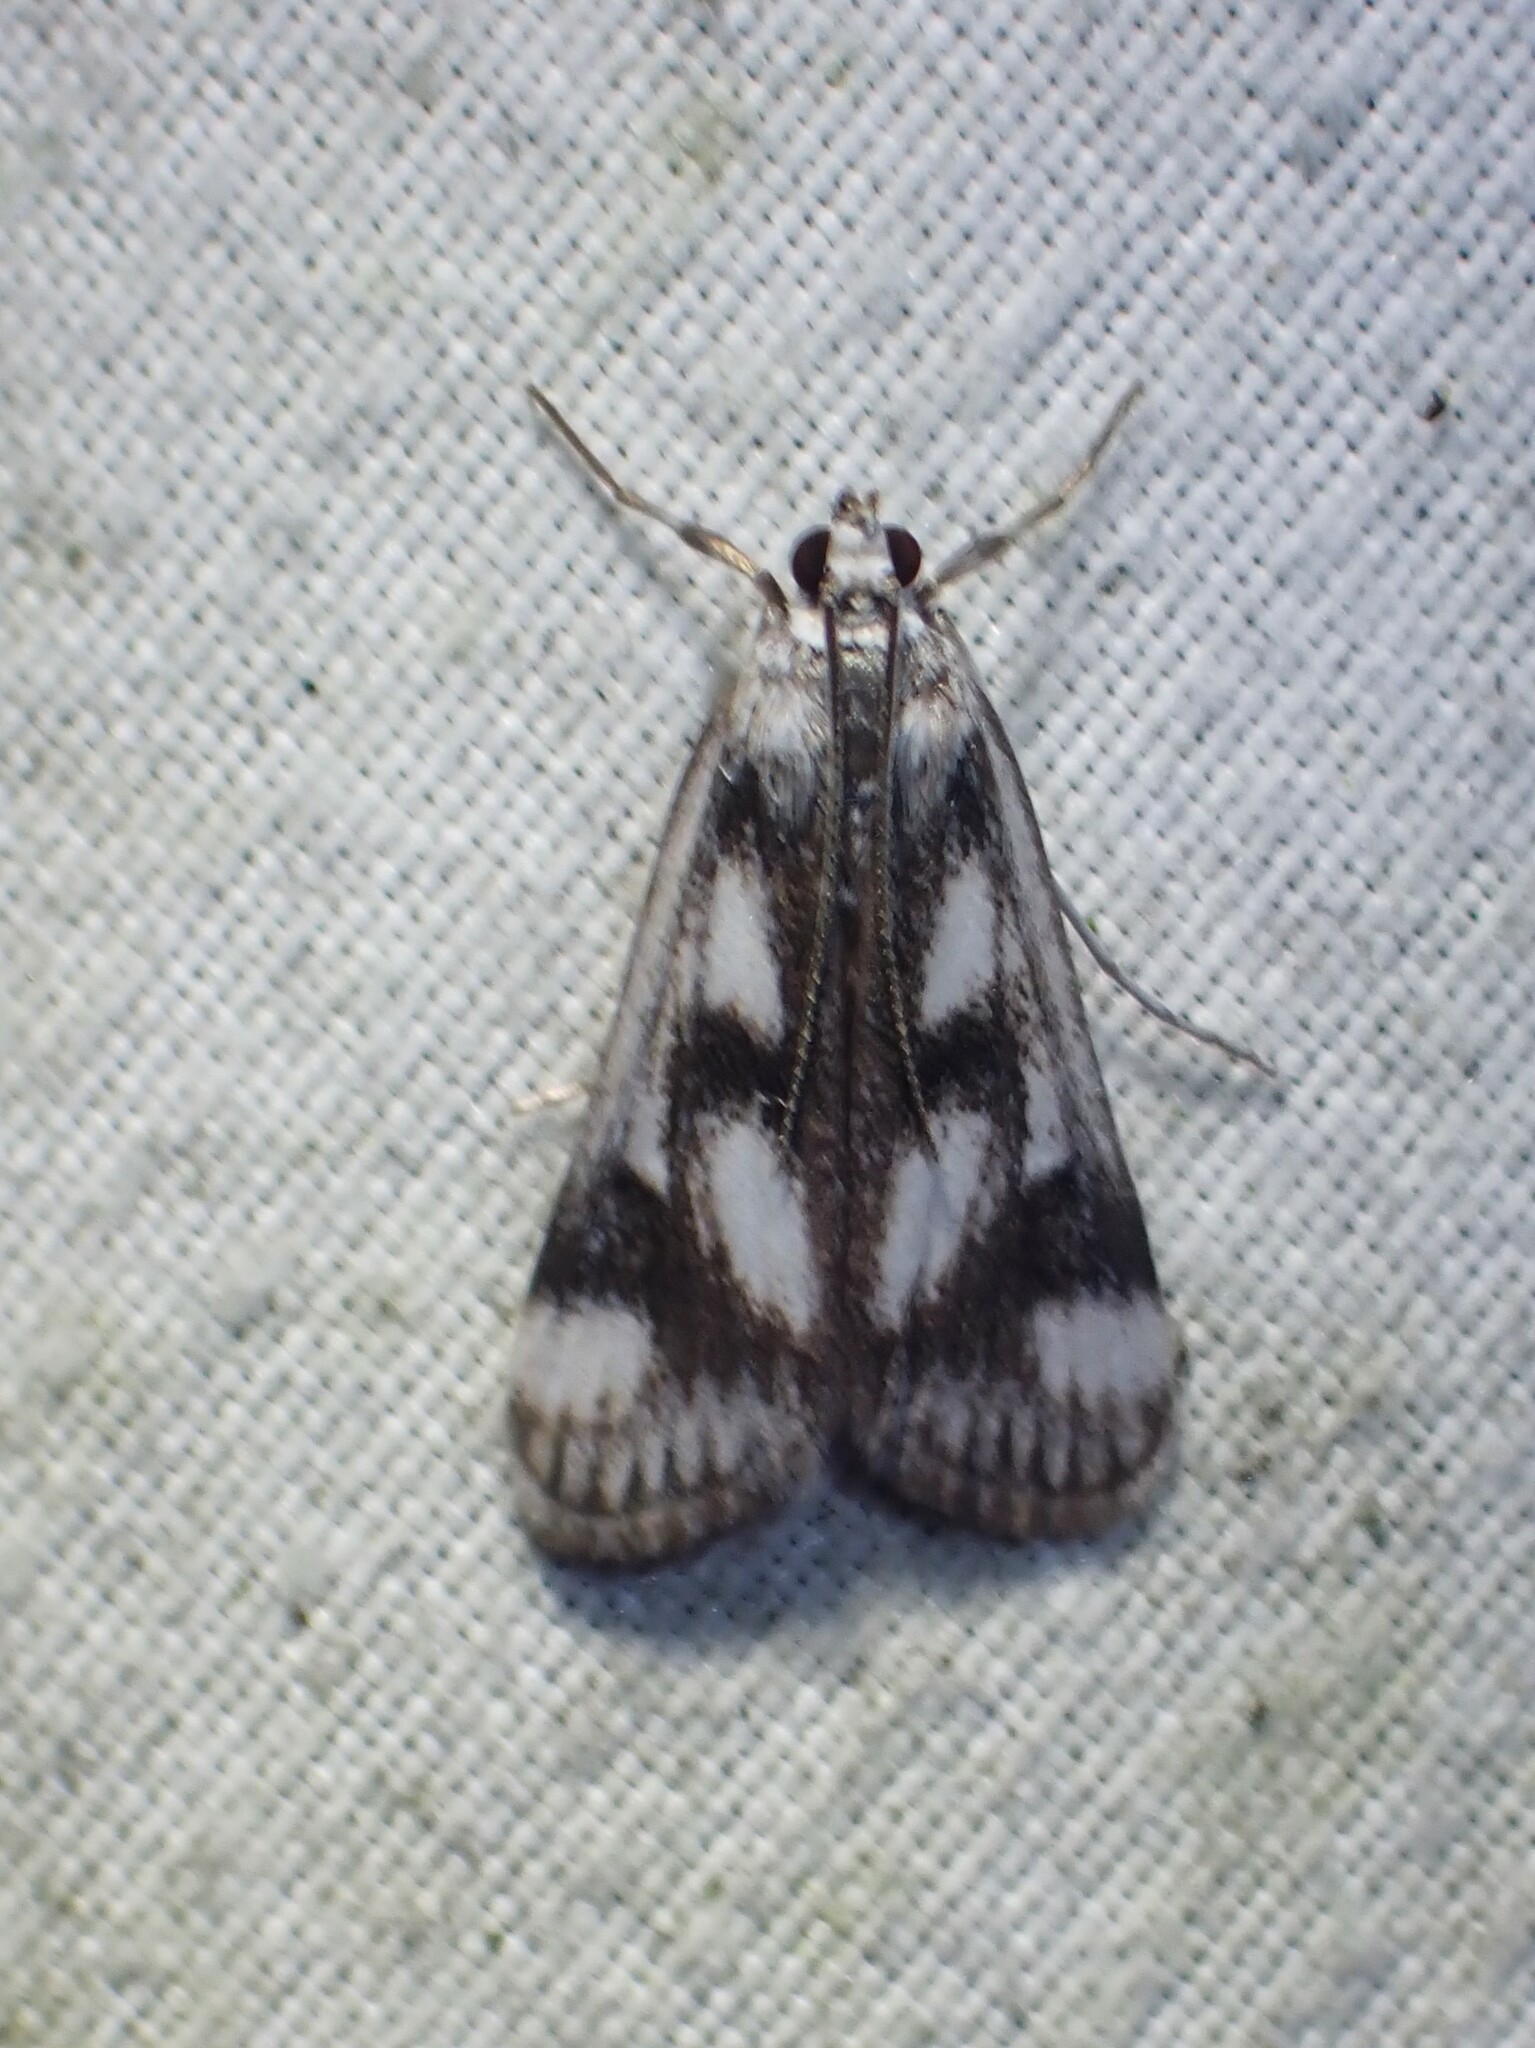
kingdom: Animalia
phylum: Arthropoda
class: Insecta
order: Lepidoptera
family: Crambidae
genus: Parapoynx
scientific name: Parapoynx maculalis
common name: Polymorphic pondweed moth
